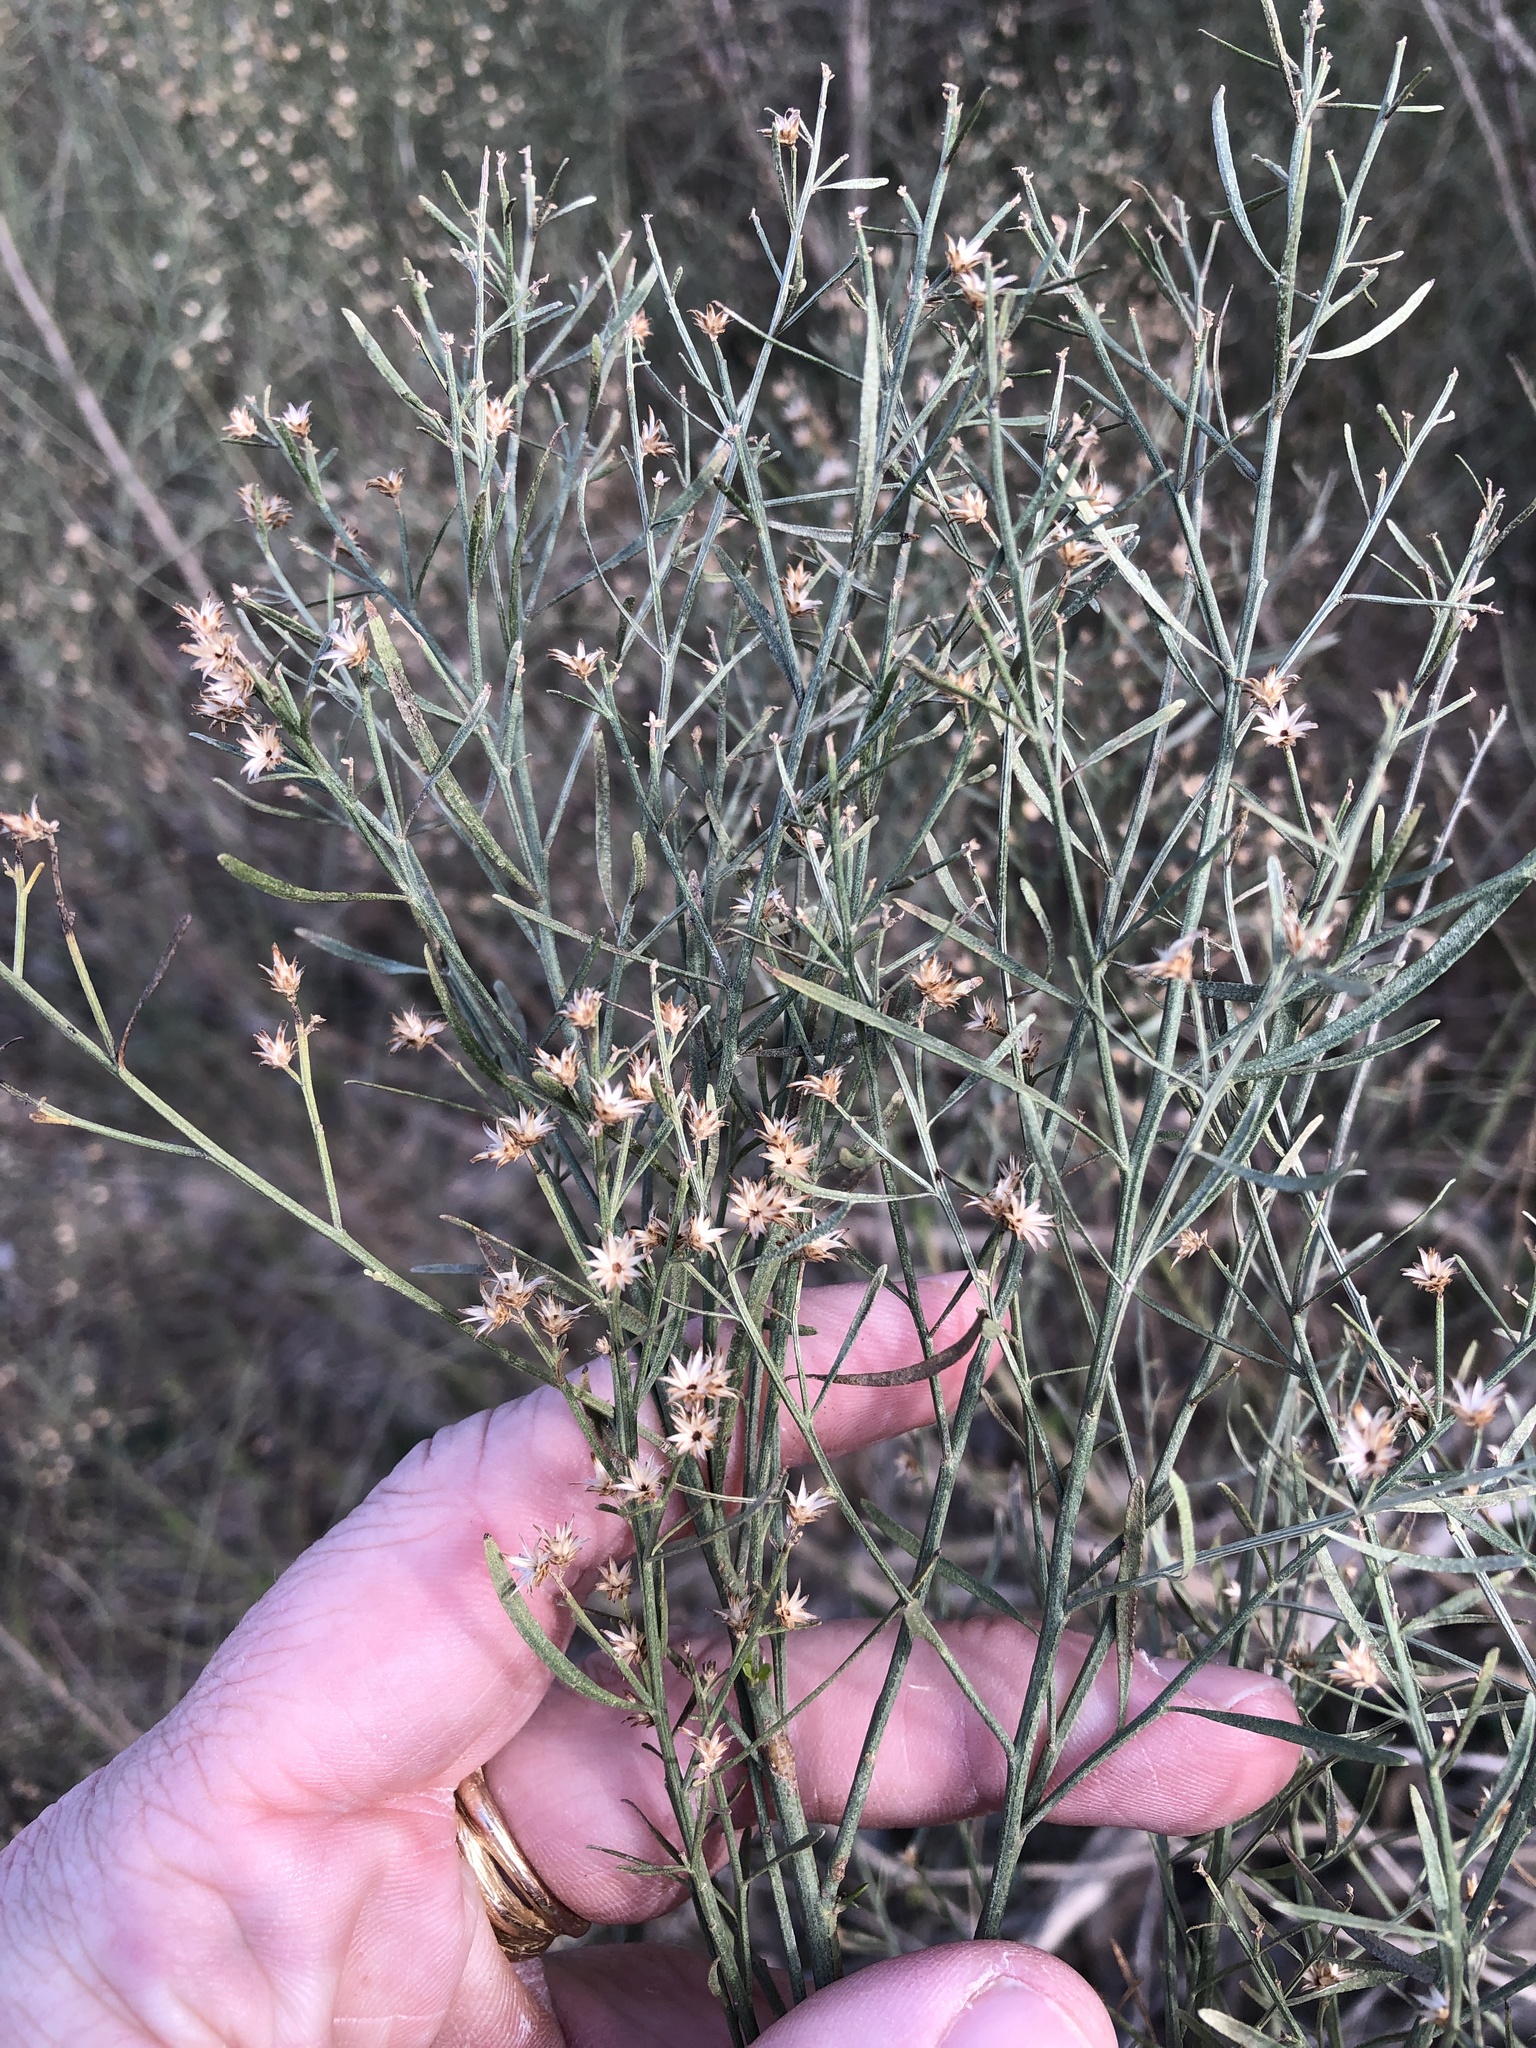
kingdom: Plantae
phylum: Tracheophyta
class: Magnoliopsida
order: Asterales
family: Asteraceae
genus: Baccharis
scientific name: Baccharis neglecta
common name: Roosevelt-weed
